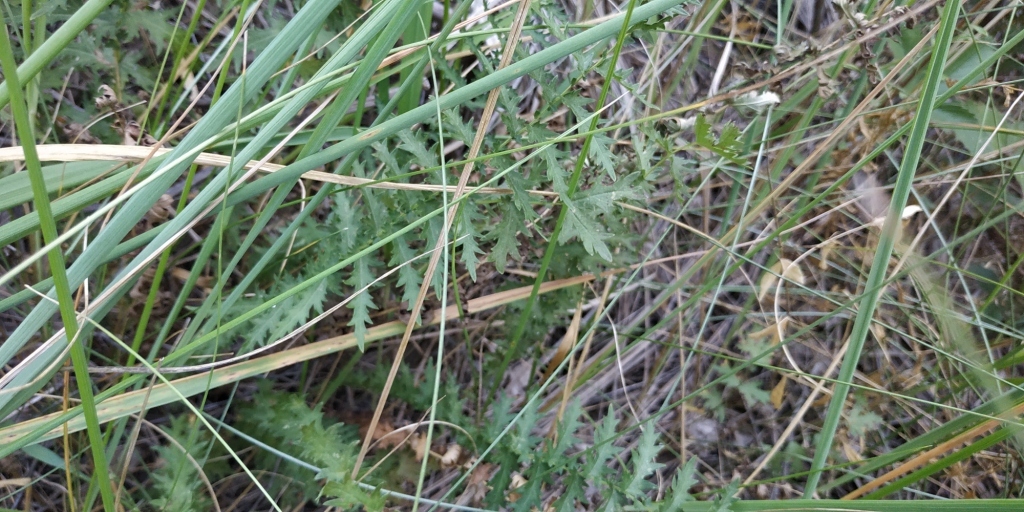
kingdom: Plantae
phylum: Tracheophyta
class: Magnoliopsida
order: Rosales
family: Rosaceae
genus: Filipendula
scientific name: Filipendula vulgaris
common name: Dropwort
